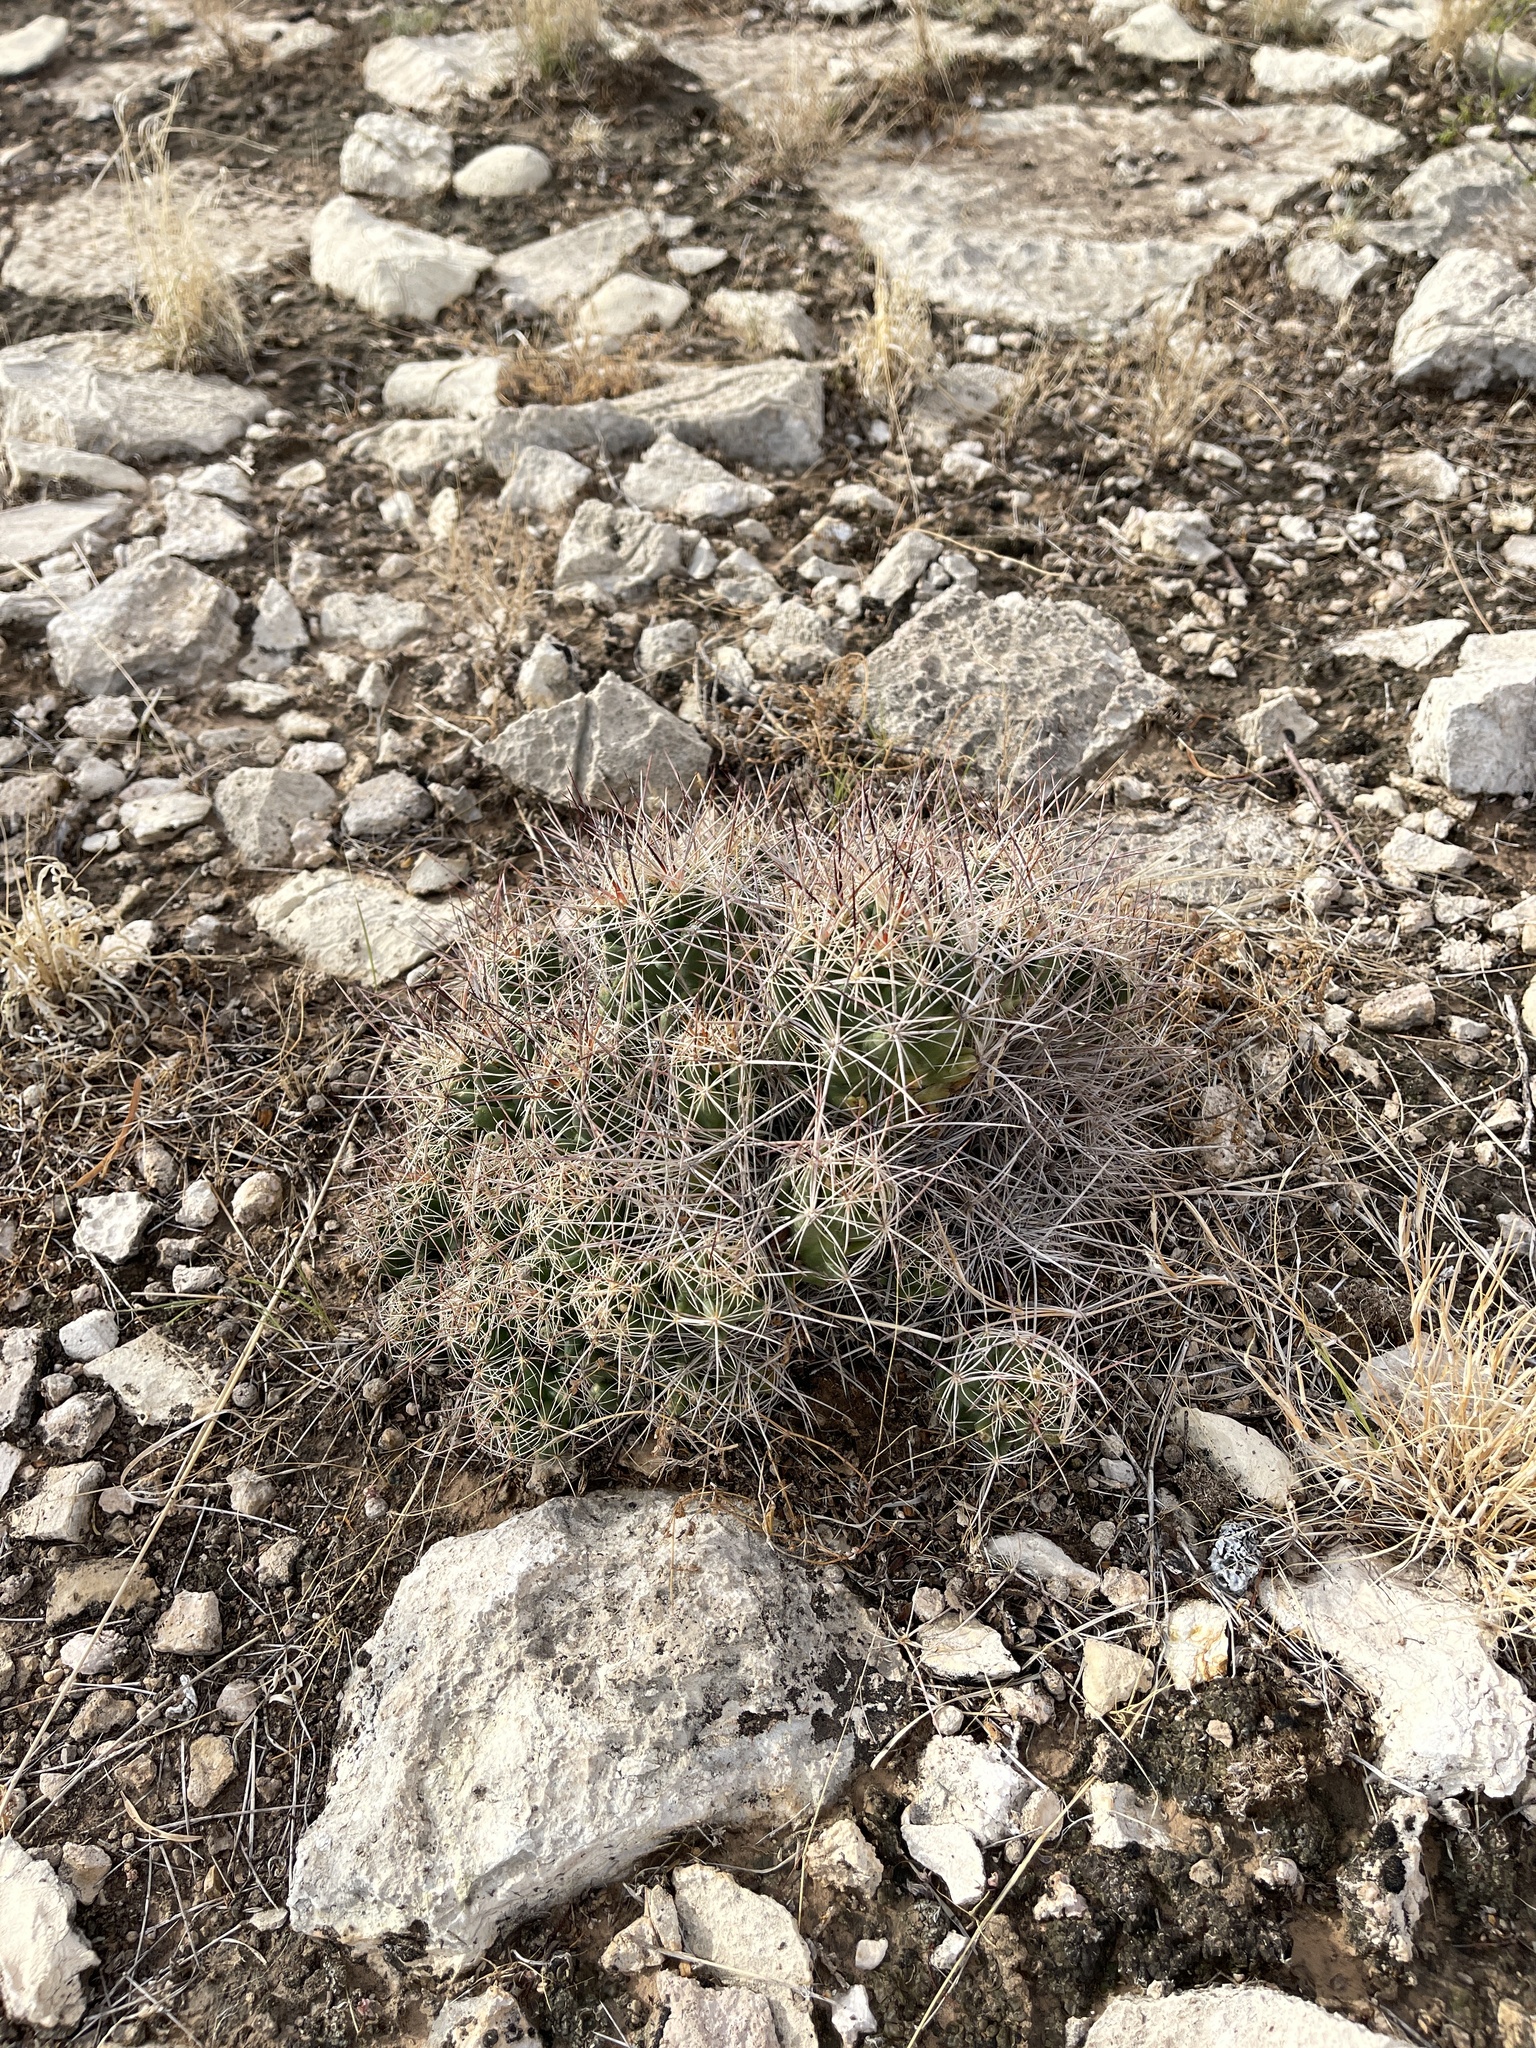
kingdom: Plantae
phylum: Tracheophyta
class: Magnoliopsida
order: Caryophyllales
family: Cactaceae
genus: Coryphantha
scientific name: Coryphantha macromeris
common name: Nipple beehive cactus
